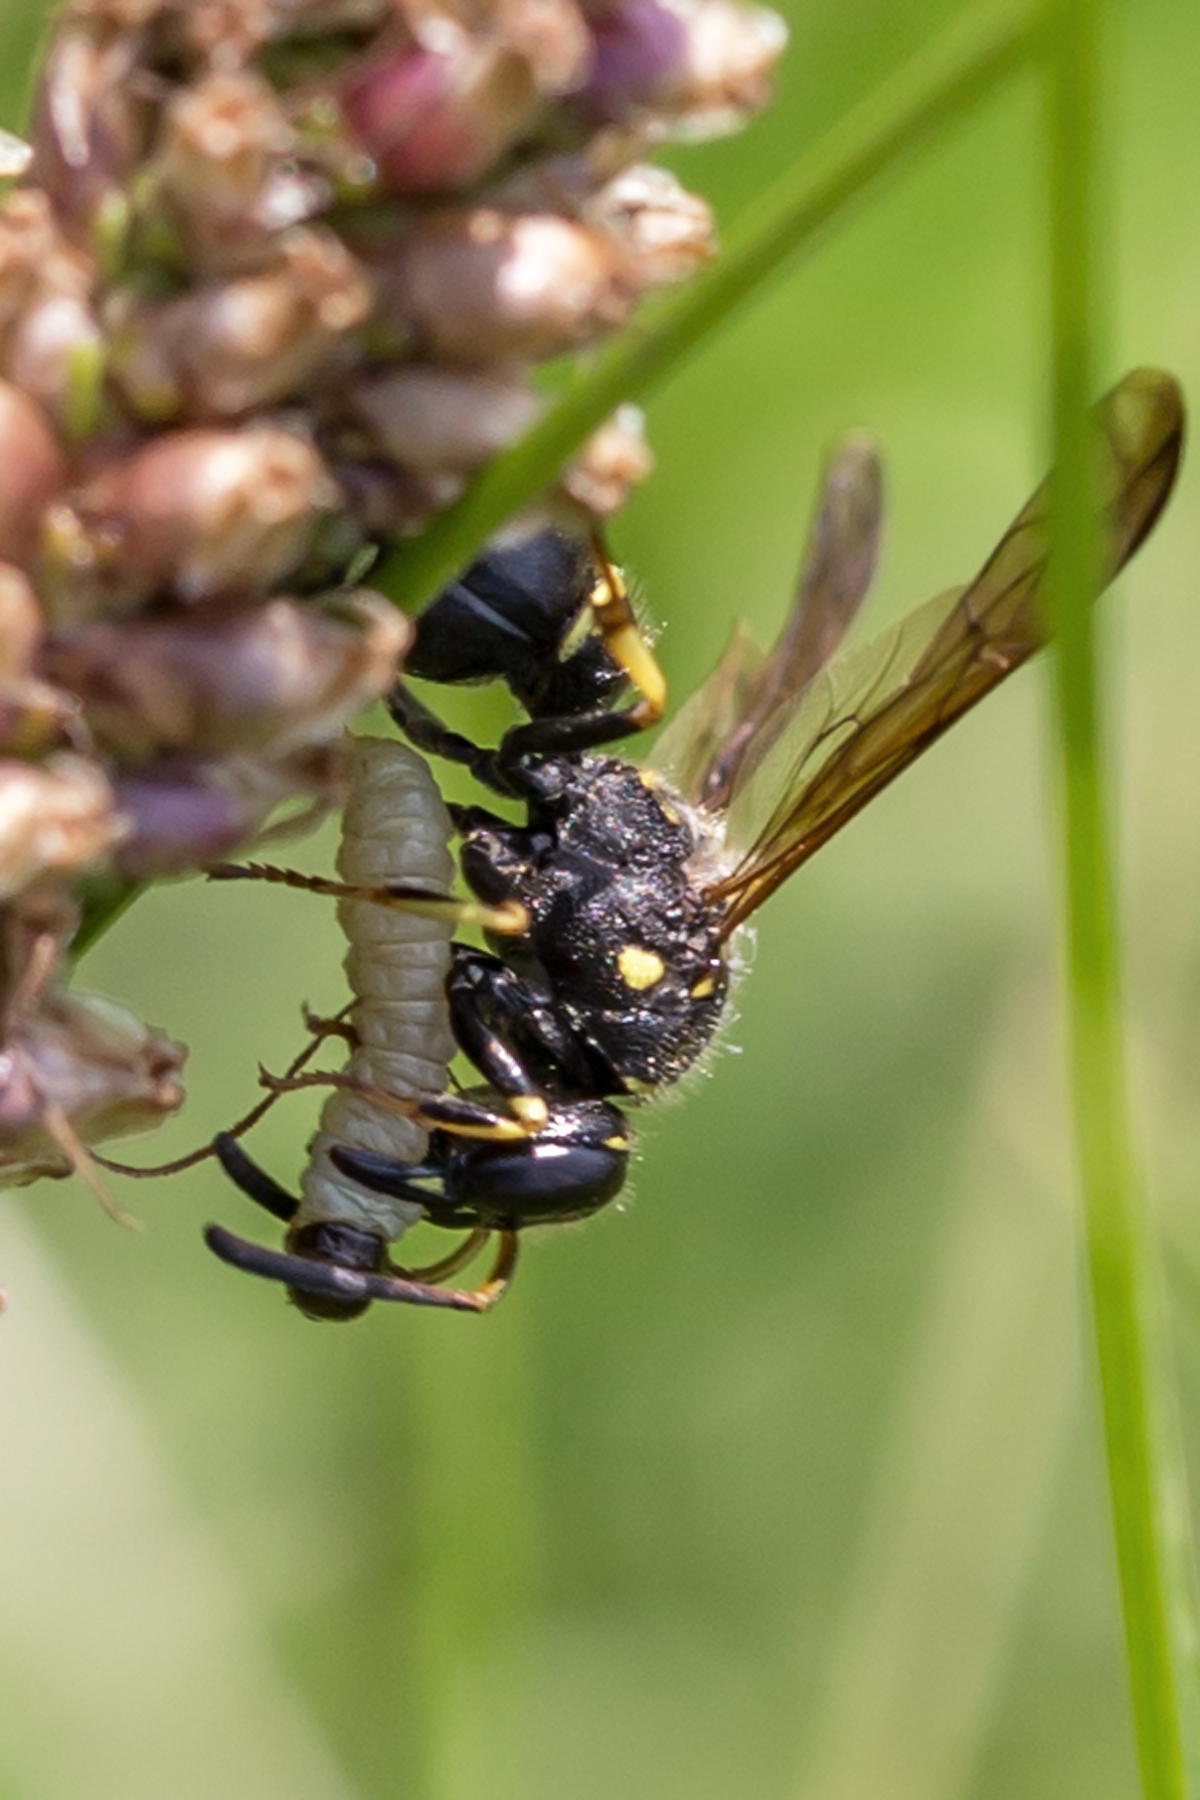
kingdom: Animalia
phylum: Arthropoda
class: Insecta
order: Hymenoptera
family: Vespidae
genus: Ancistrocerus
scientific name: Ancistrocerus catskill
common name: Vespid wasp
